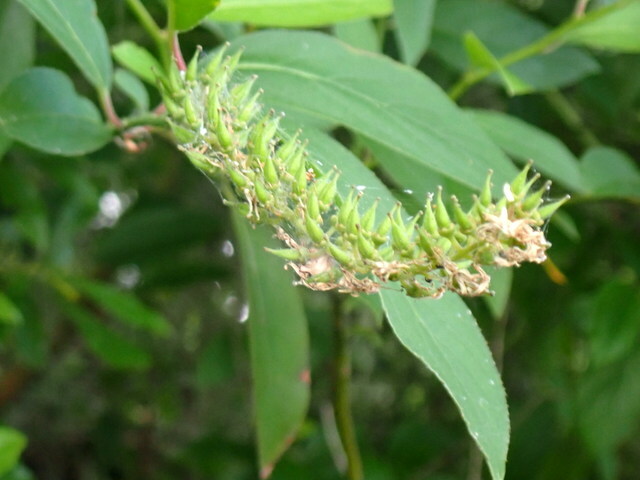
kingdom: Plantae
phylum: Tracheophyta
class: Magnoliopsida
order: Saxifragales
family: Iteaceae
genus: Itea
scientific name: Itea virginica
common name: Sweetspire
